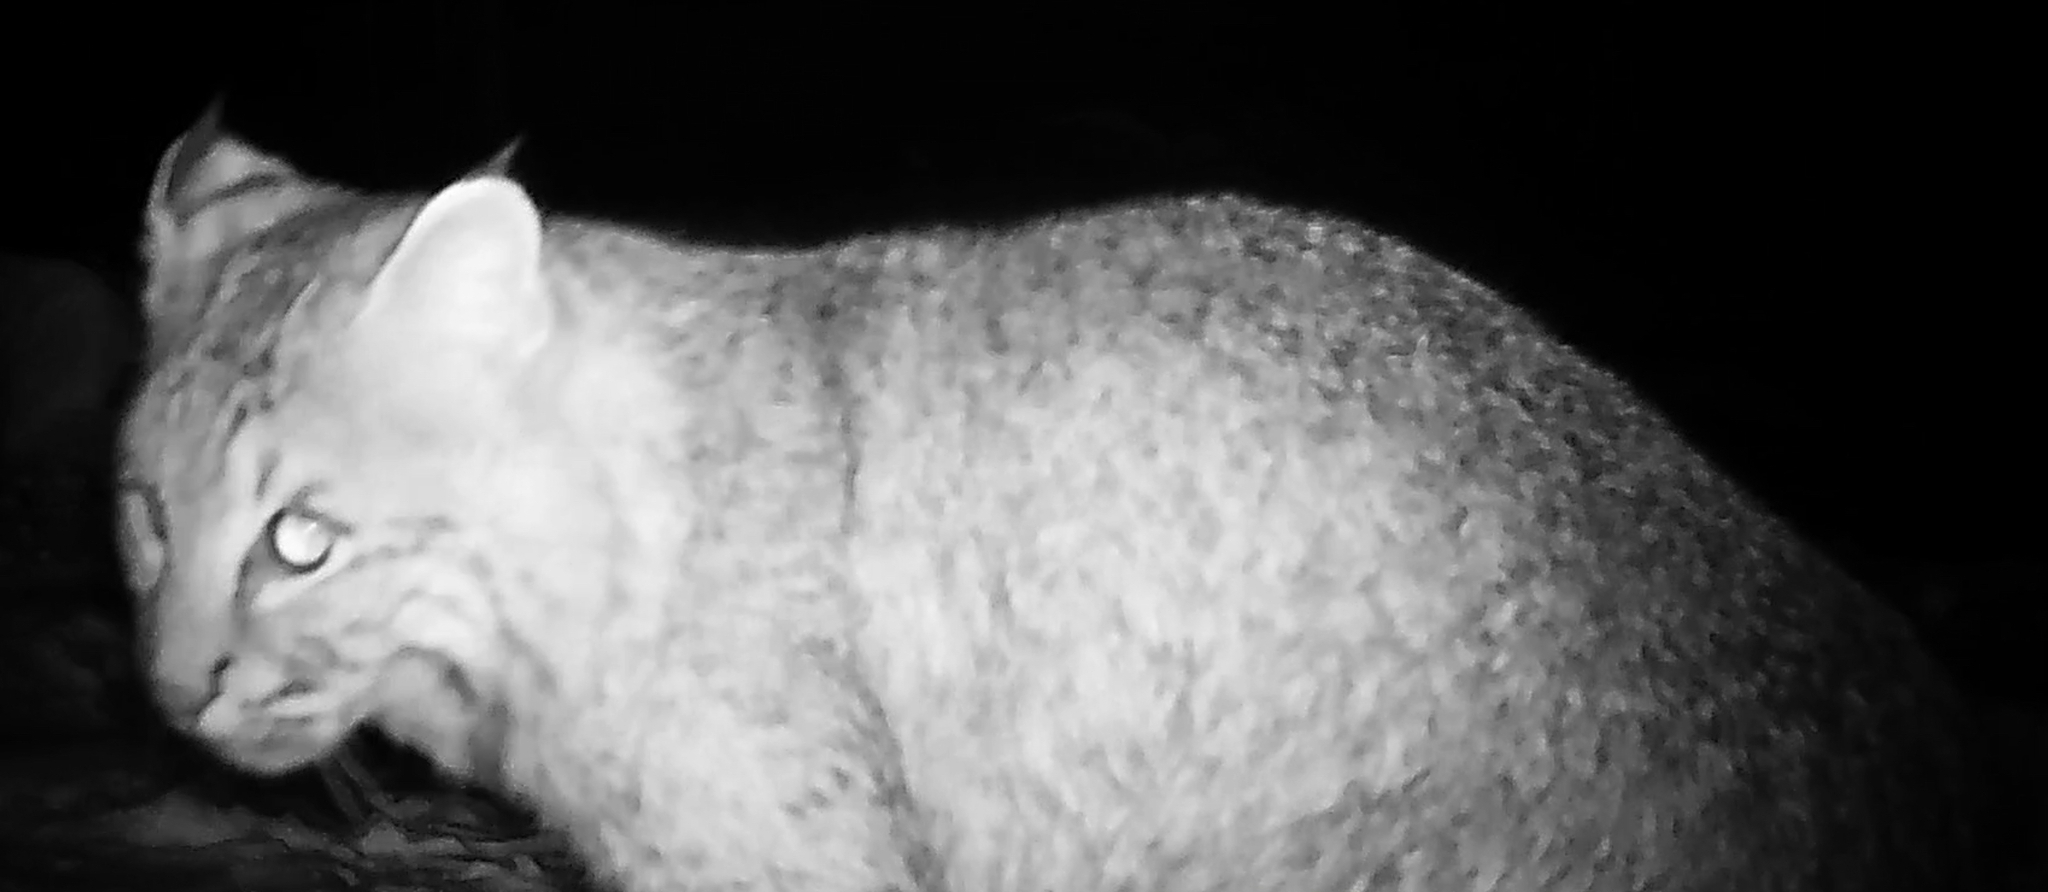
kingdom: Animalia
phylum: Chordata
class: Mammalia
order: Carnivora
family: Felidae
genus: Lynx
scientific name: Lynx rufus
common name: Bobcat
